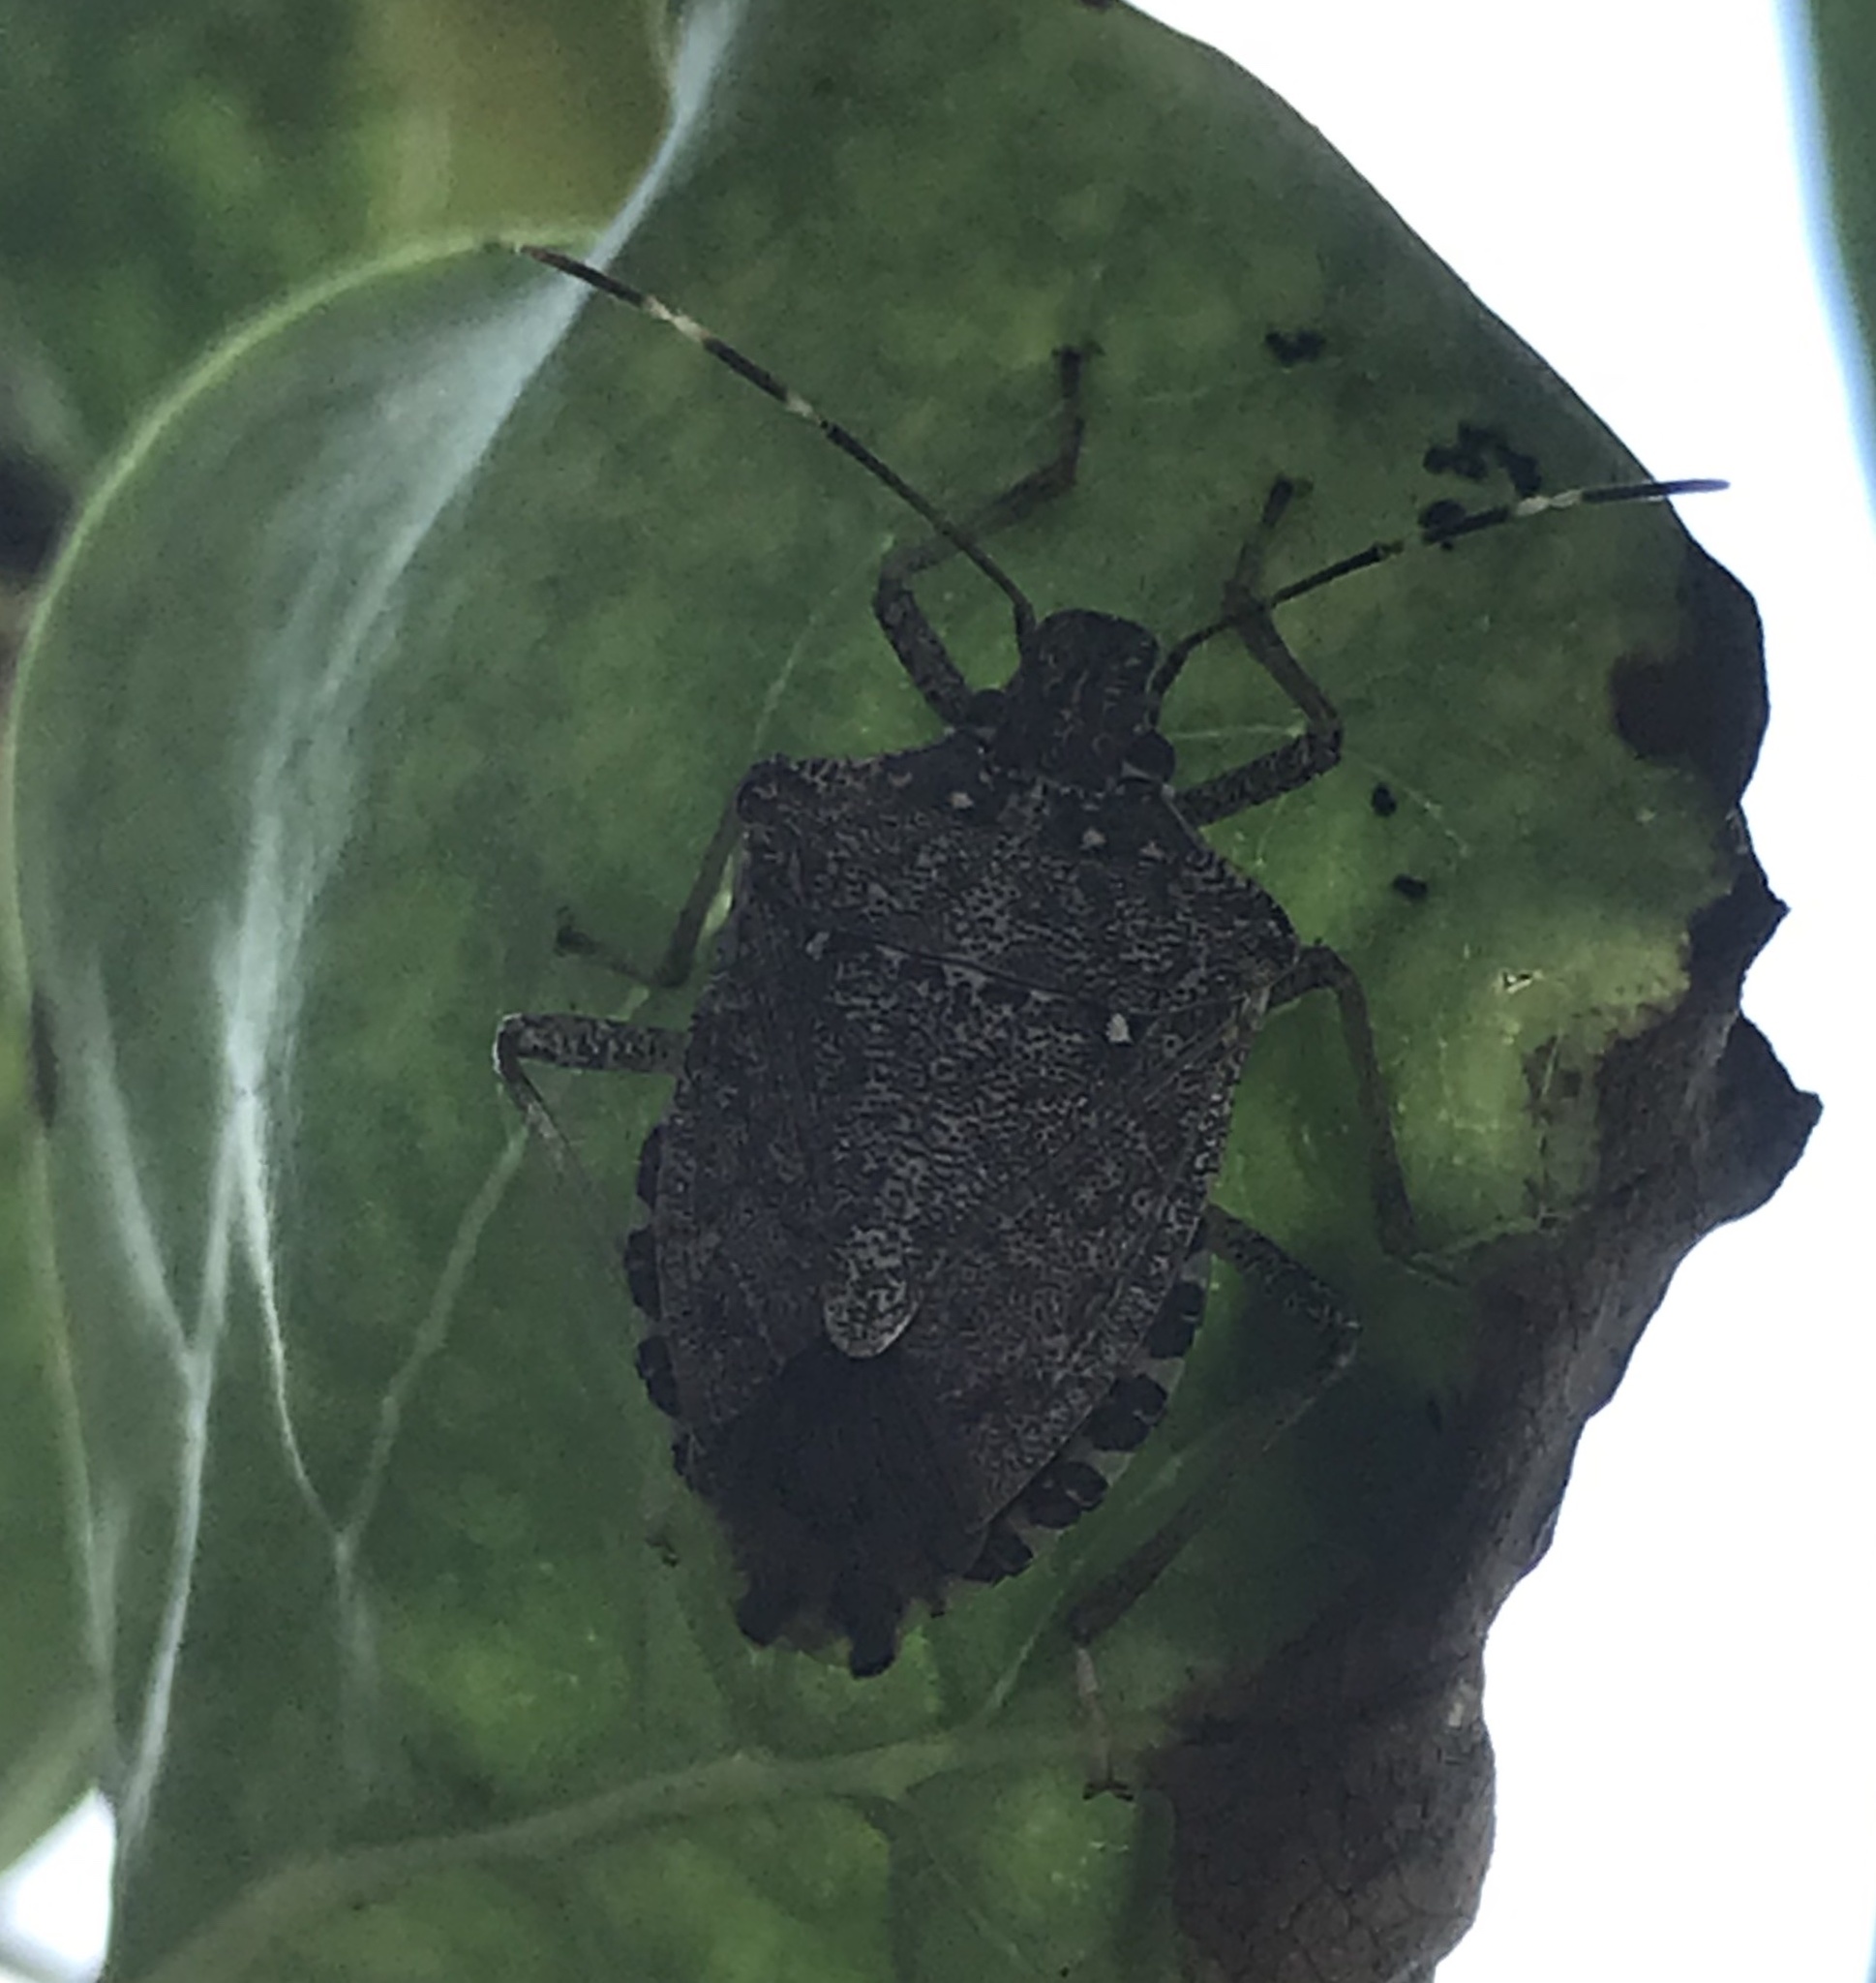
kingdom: Animalia
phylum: Arthropoda
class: Insecta
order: Hemiptera
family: Pentatomidae
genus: Halyomorpha
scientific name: Halyomorpha halys
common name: Brown marmorated stink bug
